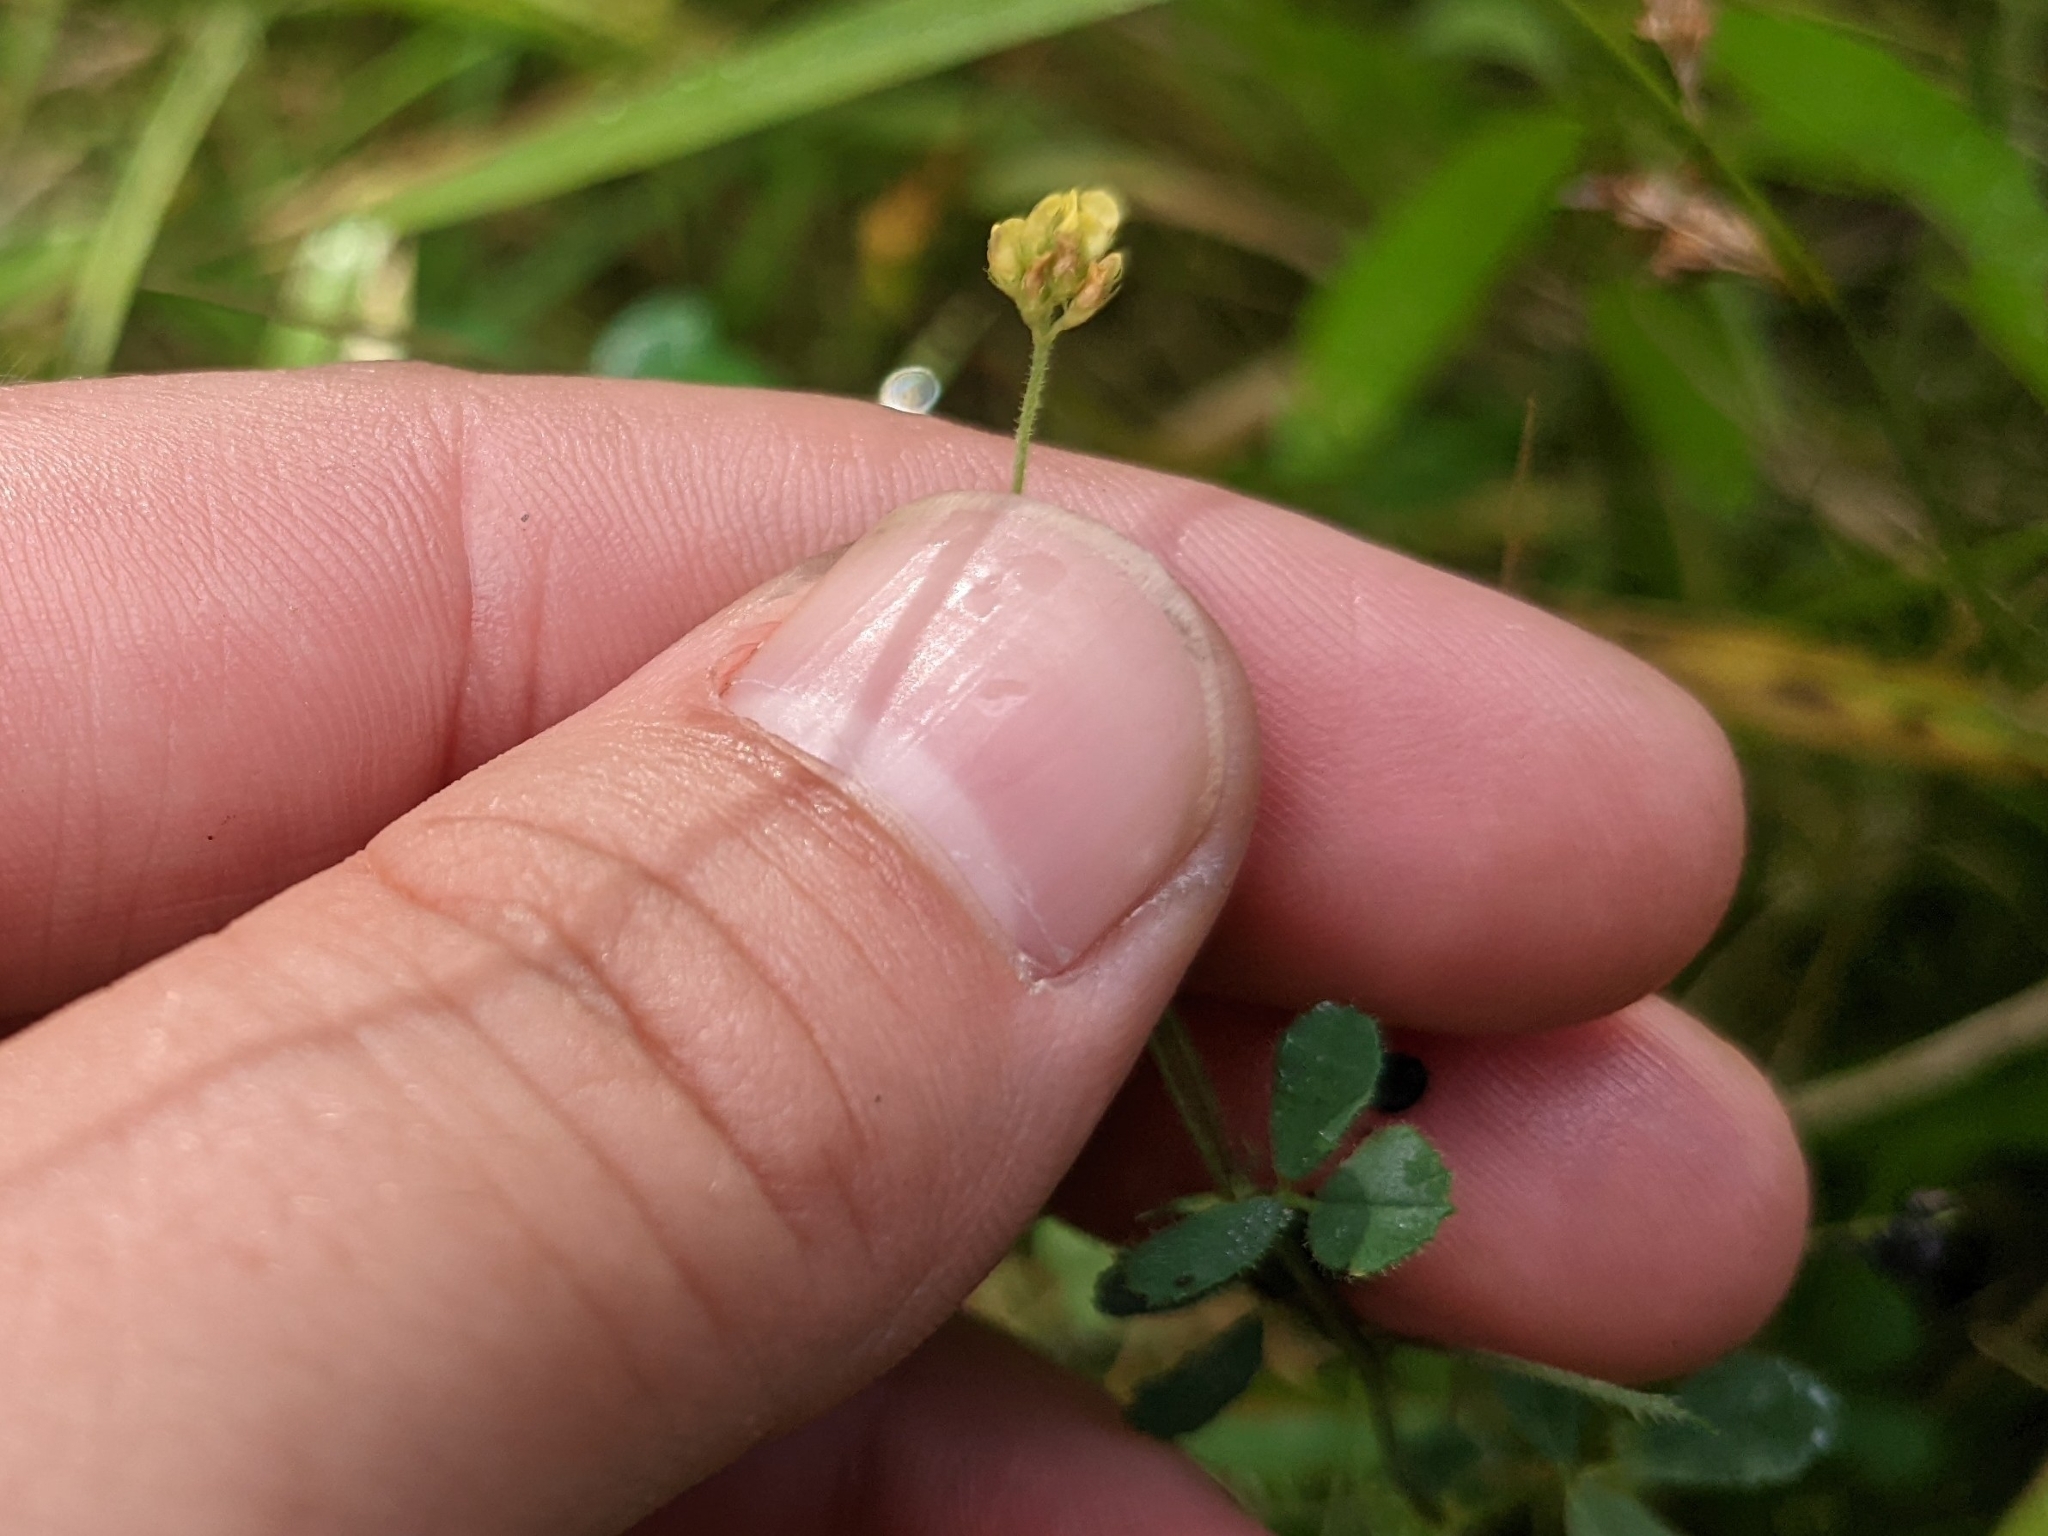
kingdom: Plantae
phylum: Tracheophyta
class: Magnoliopsida
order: Fabales
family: Fabaceae
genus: Medicago
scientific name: Medicago lupulina
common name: Black medick
